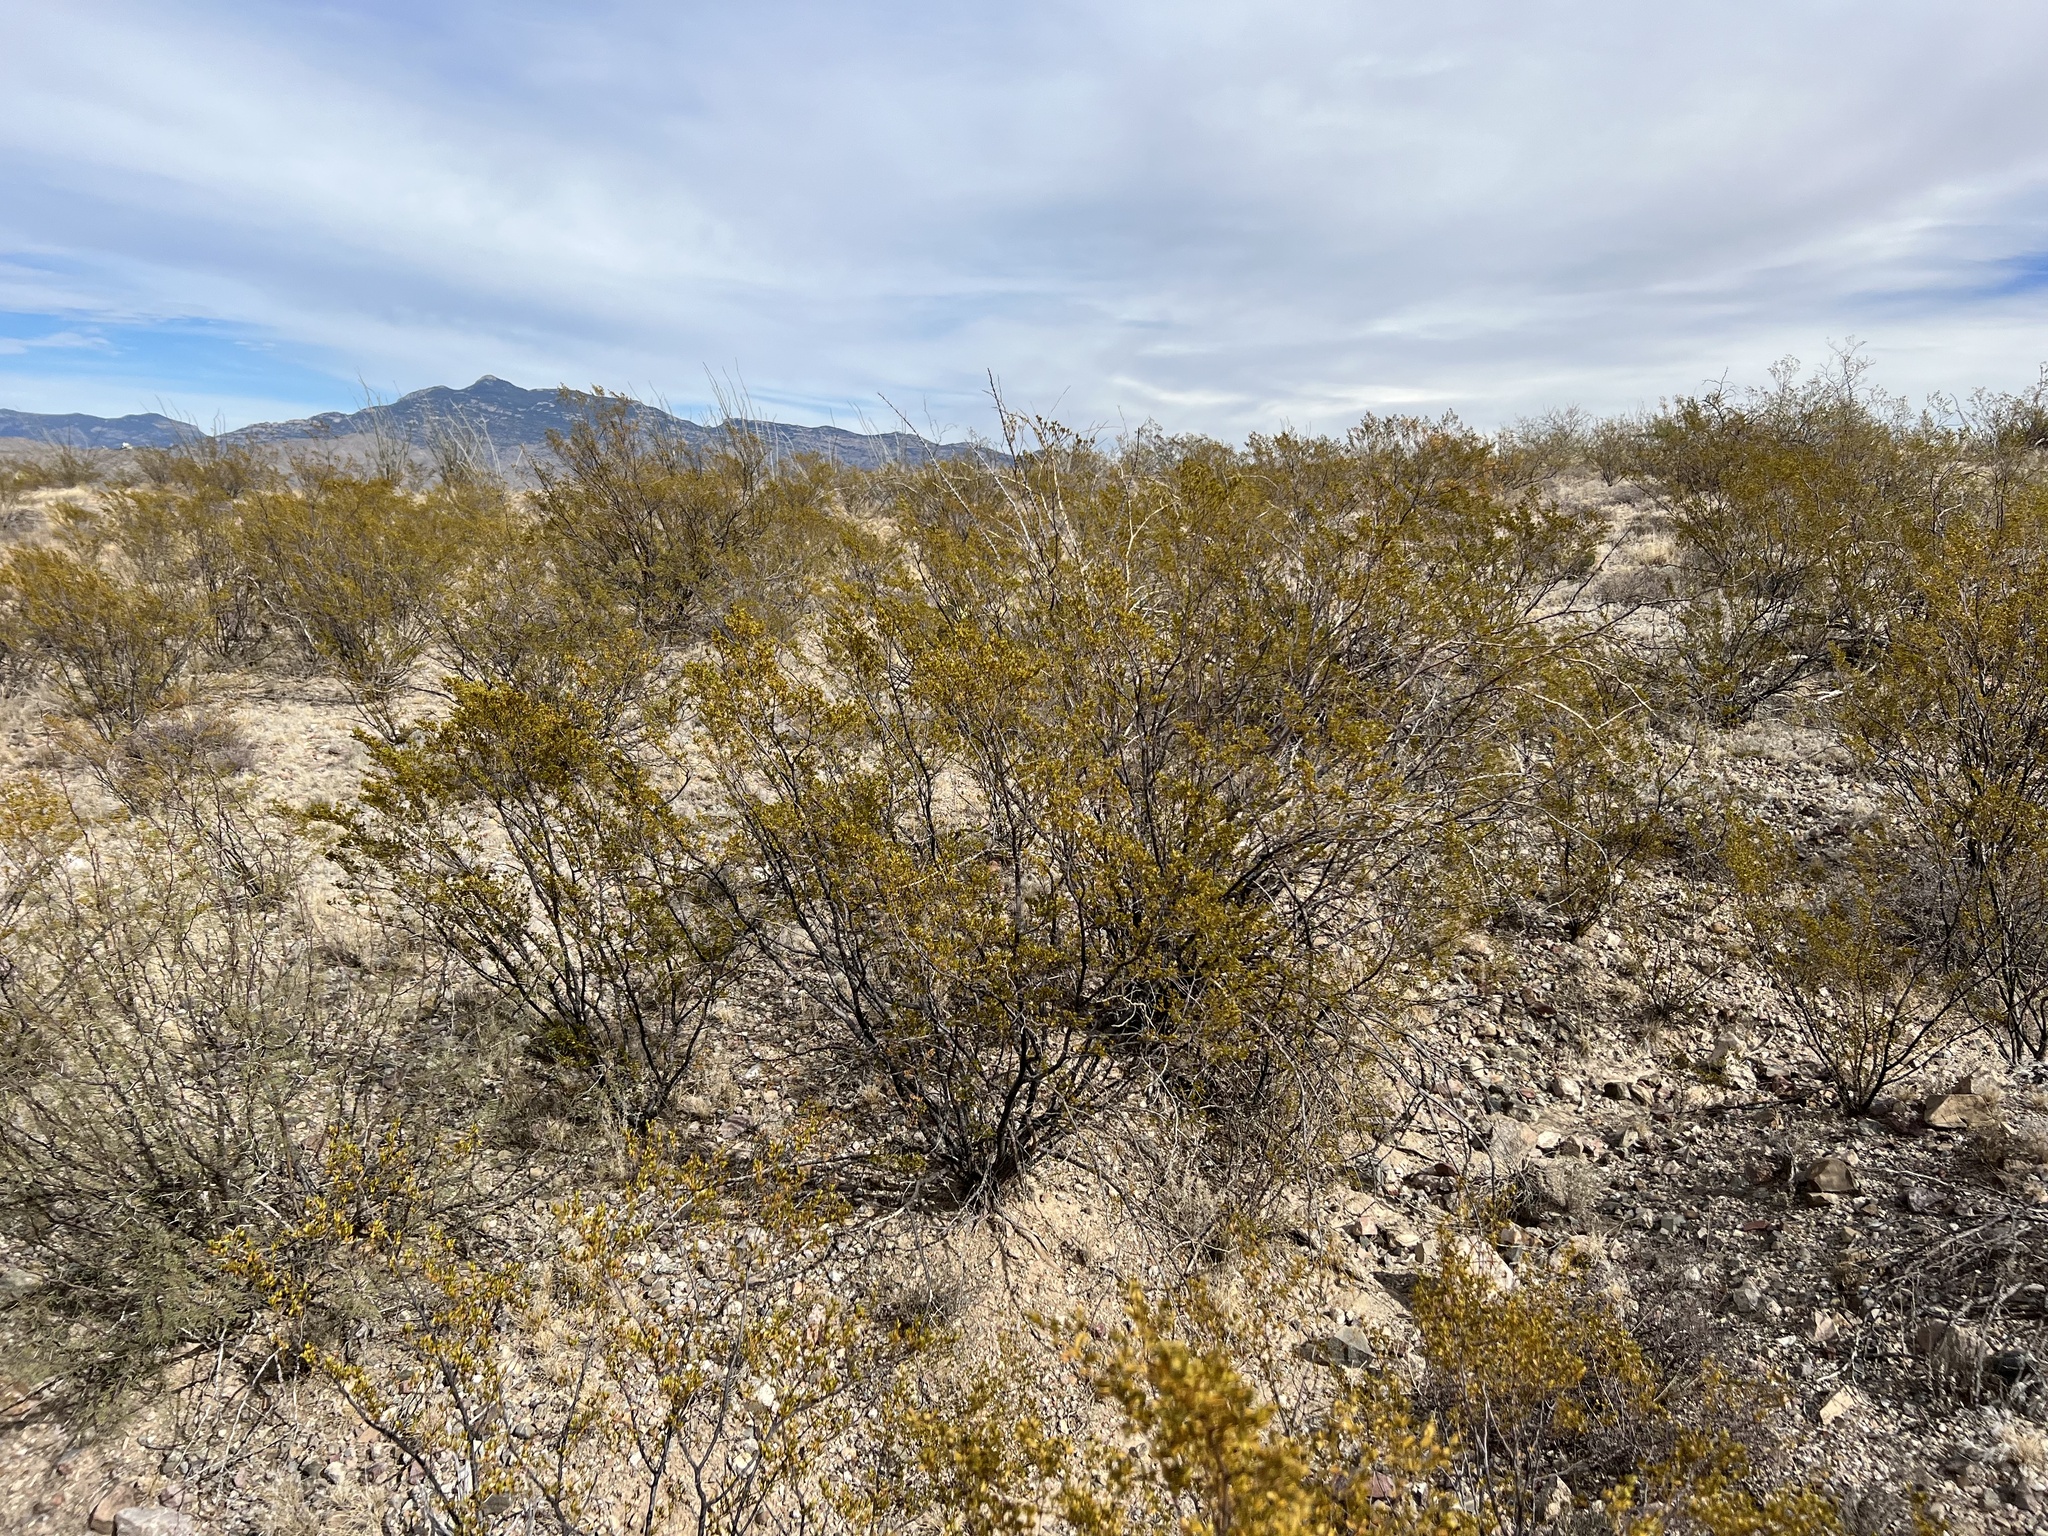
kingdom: Plantae
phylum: Tracheophyta
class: Magnoliopsida
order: Zygophyllales
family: Zygophyllaceae
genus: Larrea
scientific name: Larrea tridentata
